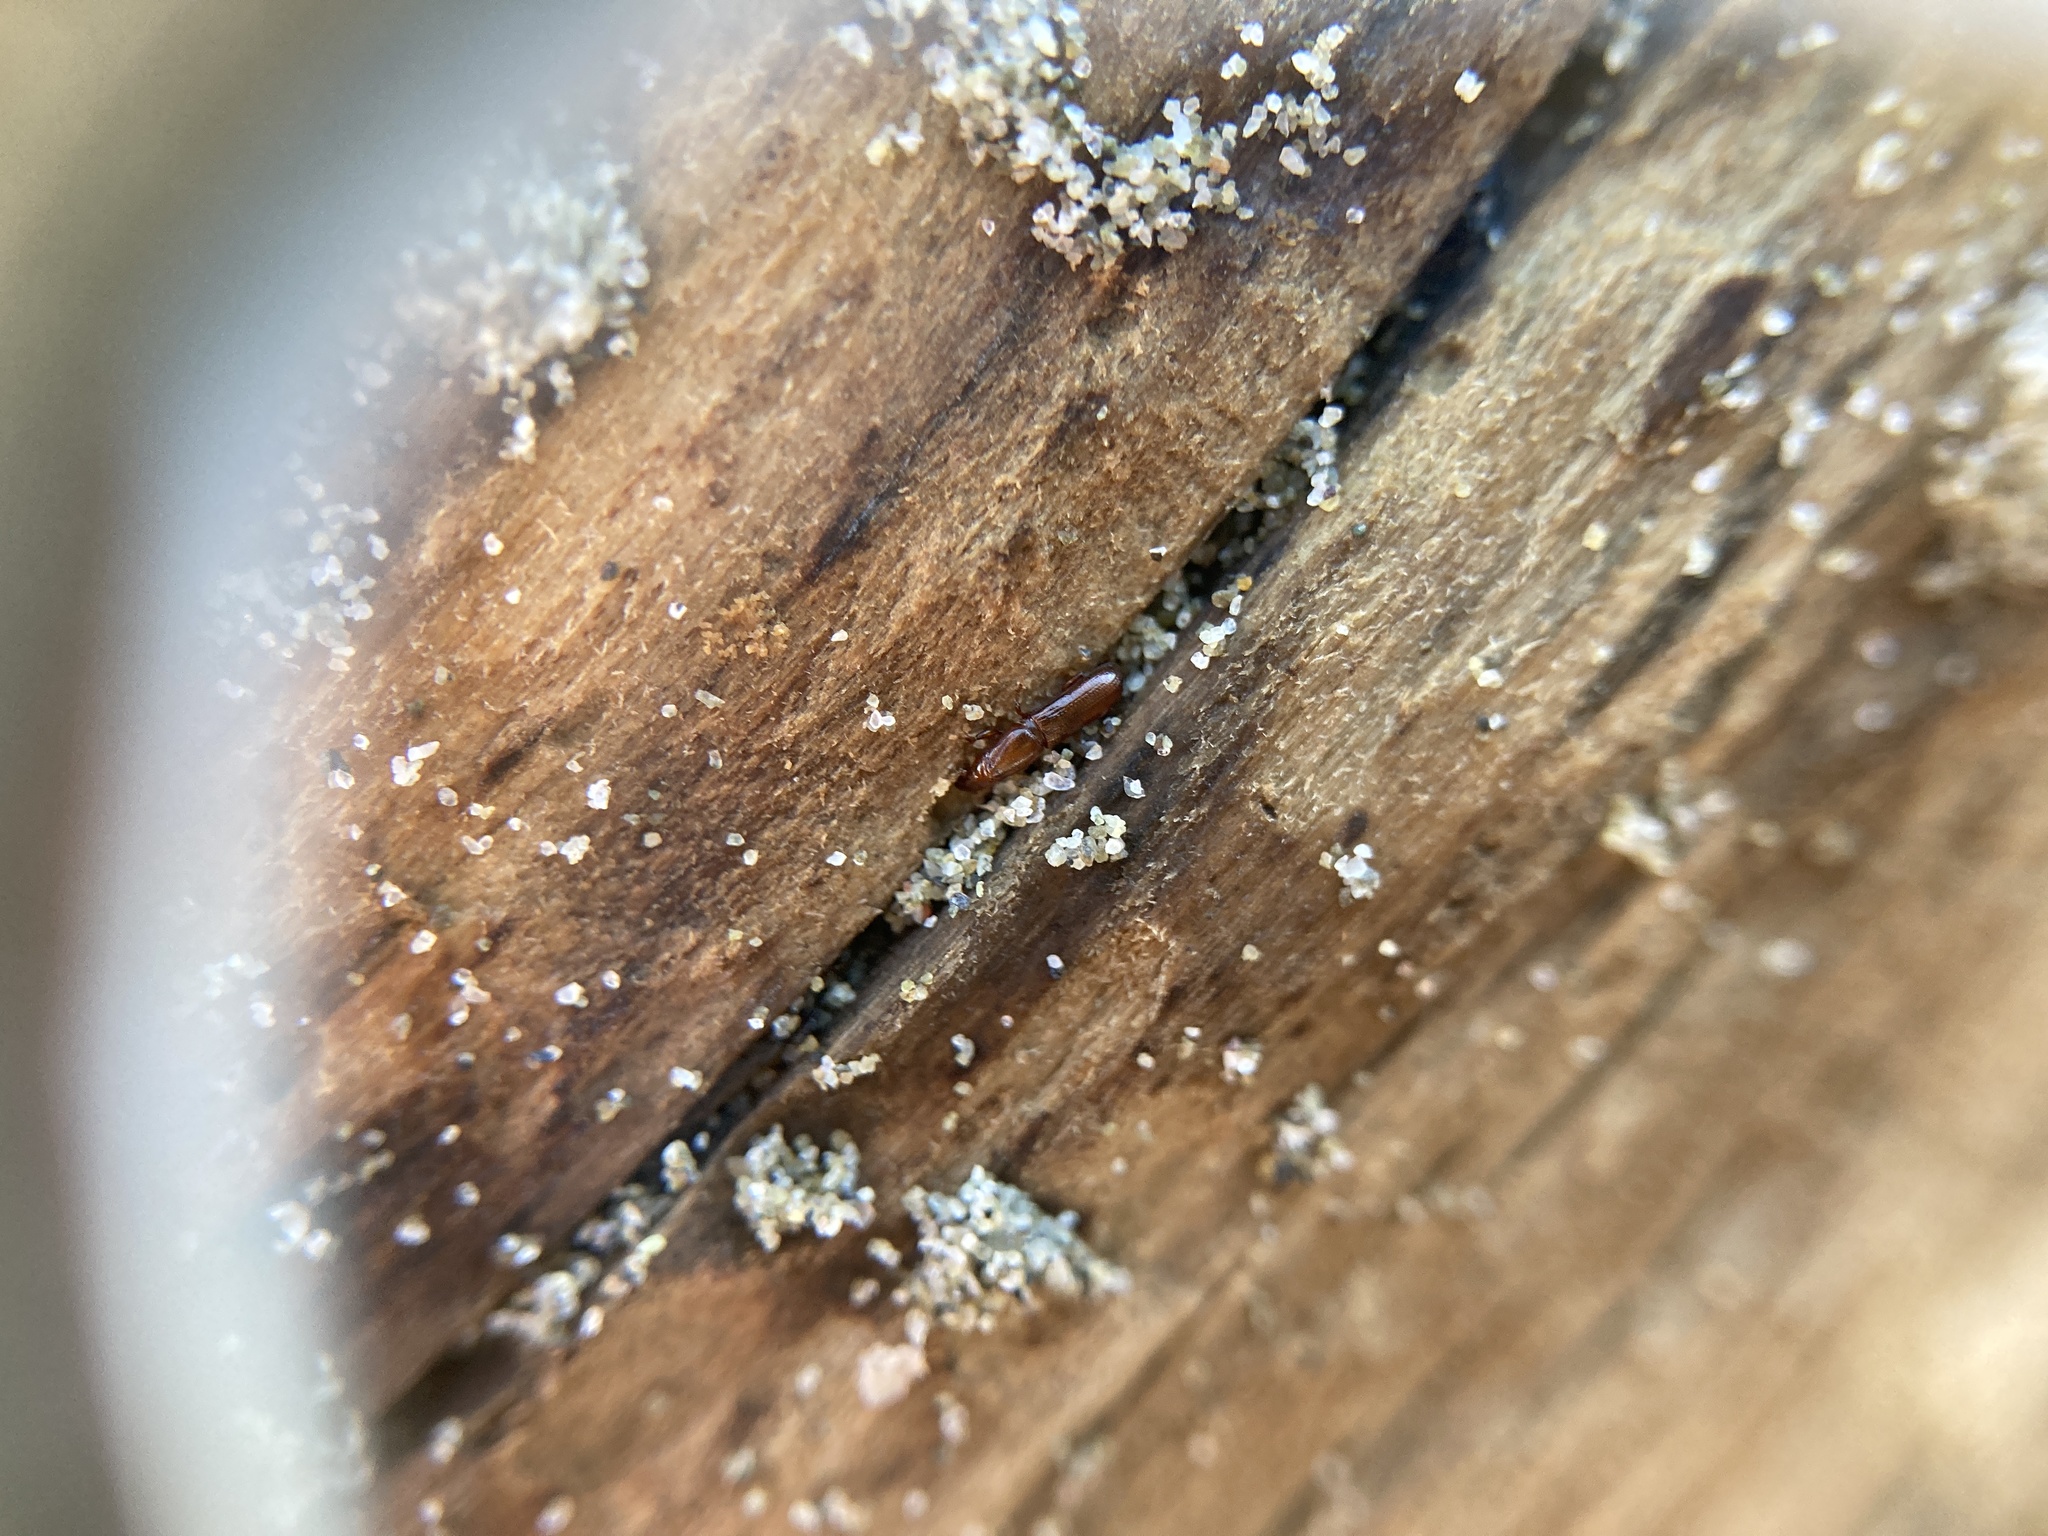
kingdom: Animalia
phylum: Arthropoda
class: Insecta
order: Coleoptera
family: Curculionidae
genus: Eutornus
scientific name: Eutornus littoralis
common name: Driftwood weevil
